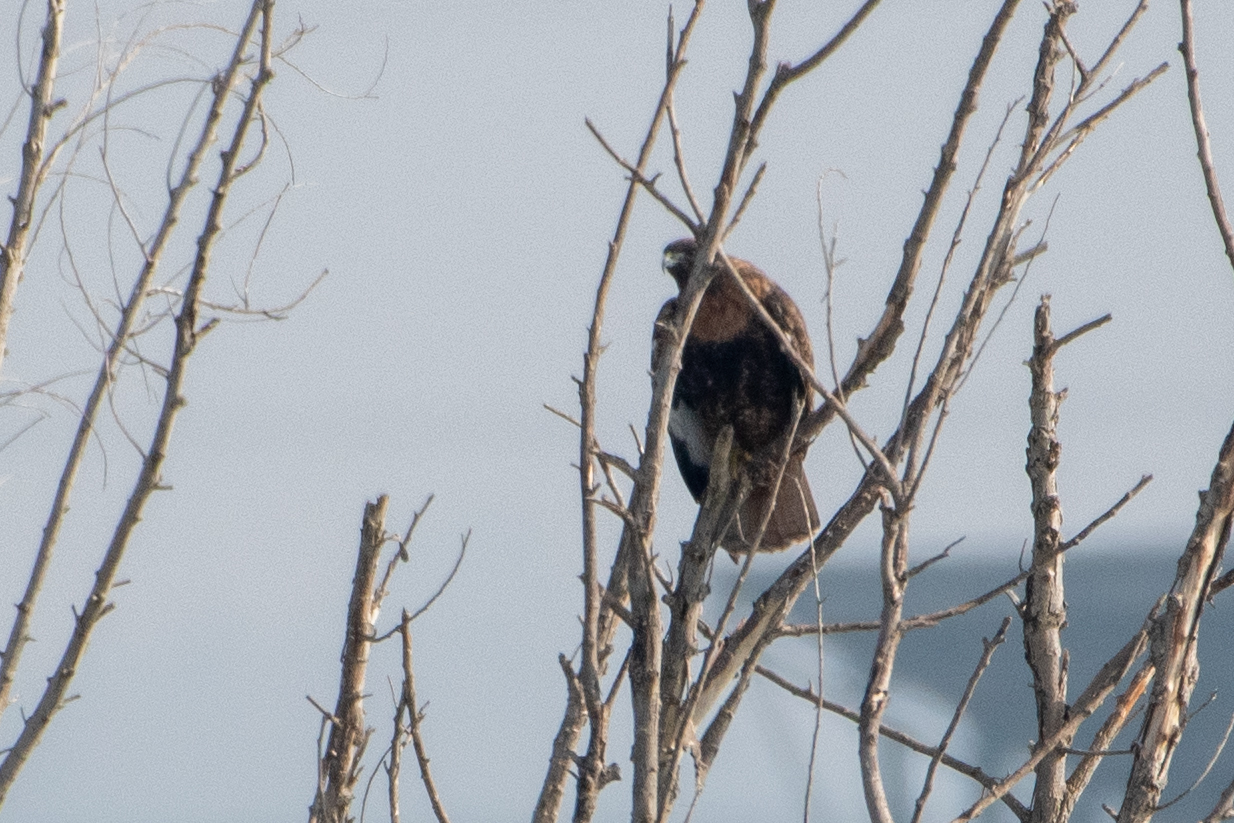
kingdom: Animalia
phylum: Chordata
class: Aves
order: Accipitriformes
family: Accipitridae
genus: Buteo
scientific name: Buteo jamaicensis
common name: Red-tailed hawk
